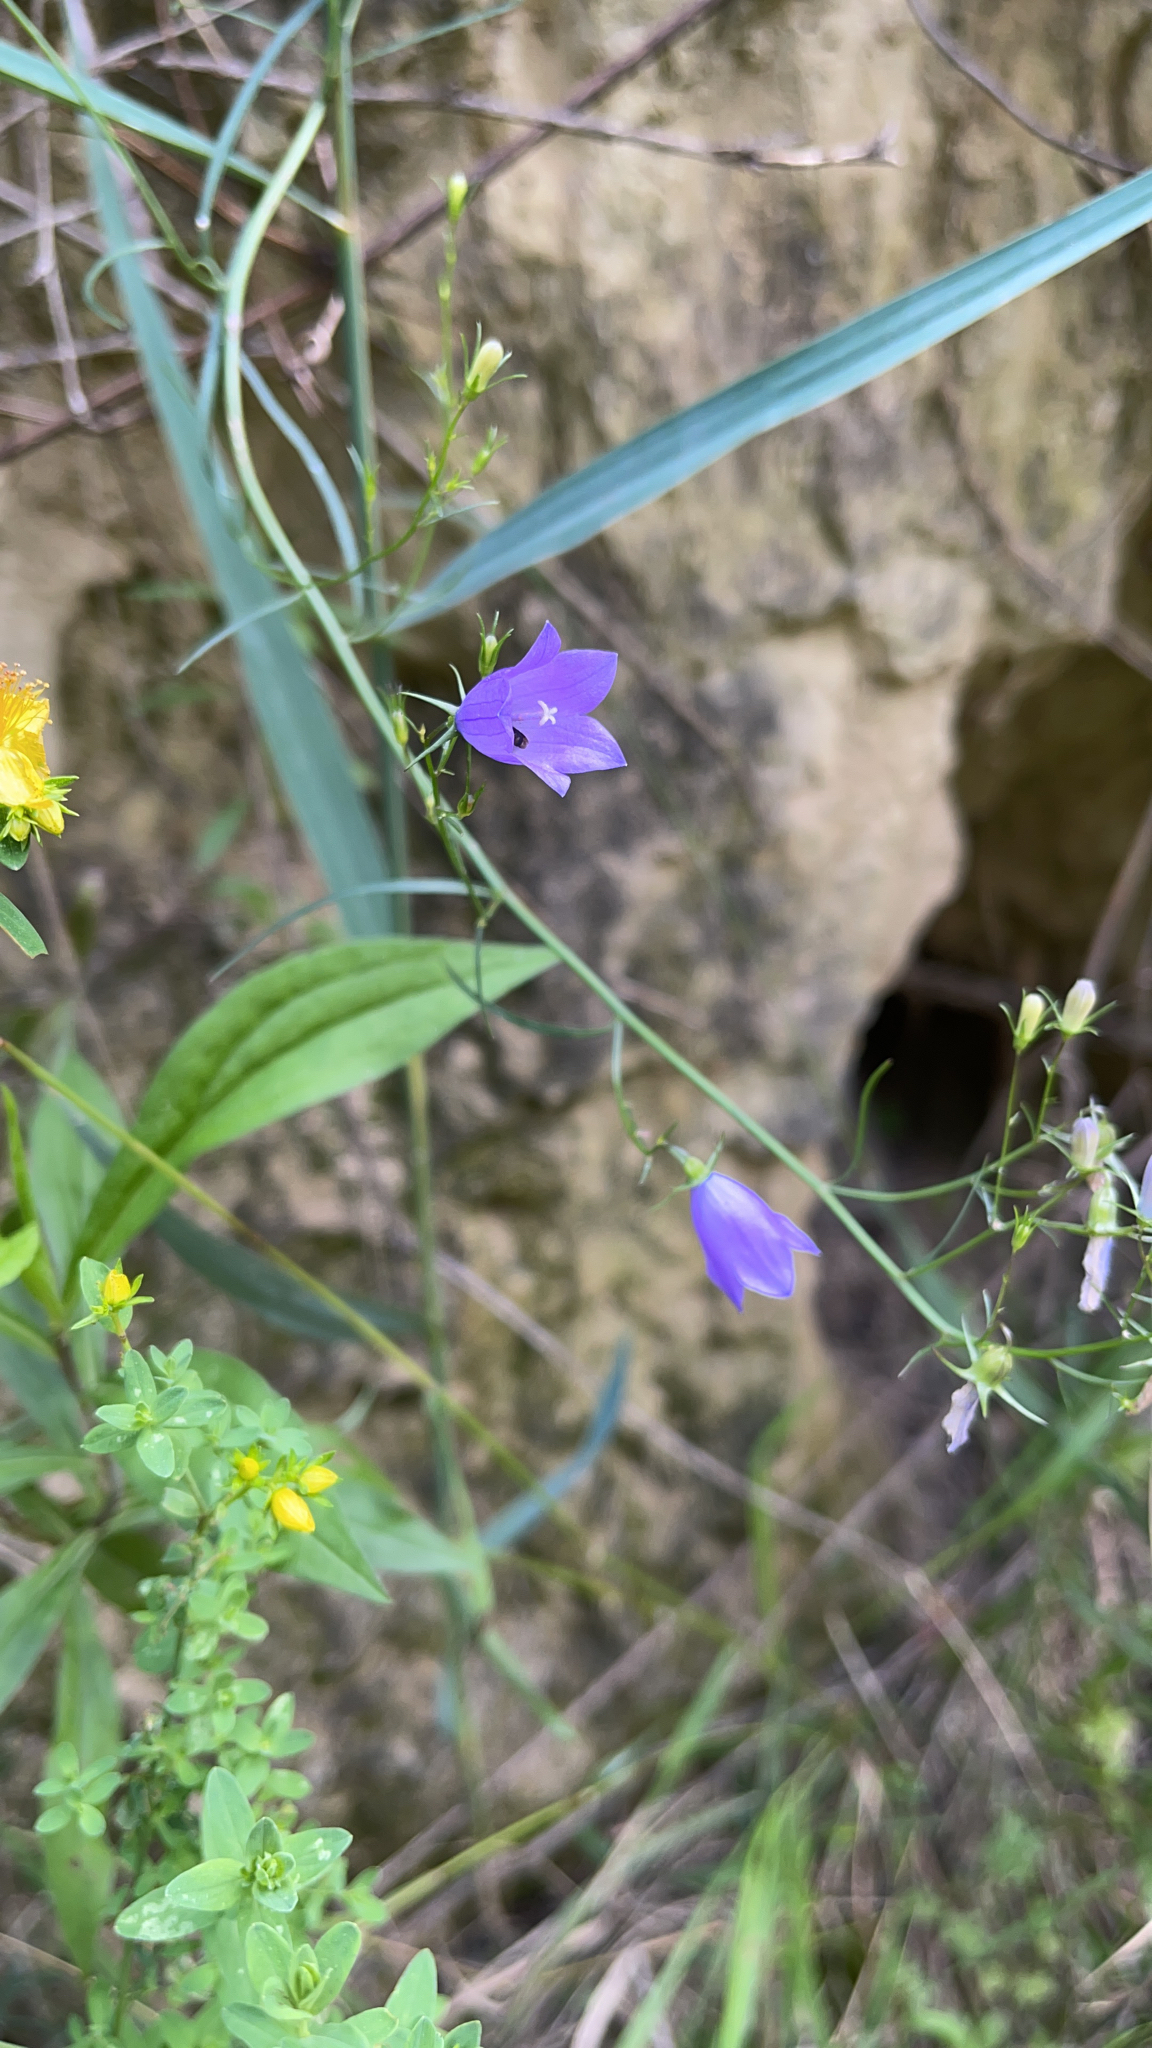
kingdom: Plantae
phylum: Tracheophyta
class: Magnoliopsida
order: Asterales
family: Campanulaceae
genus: Campanula
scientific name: Campanula rotundifolia
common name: Harebell
